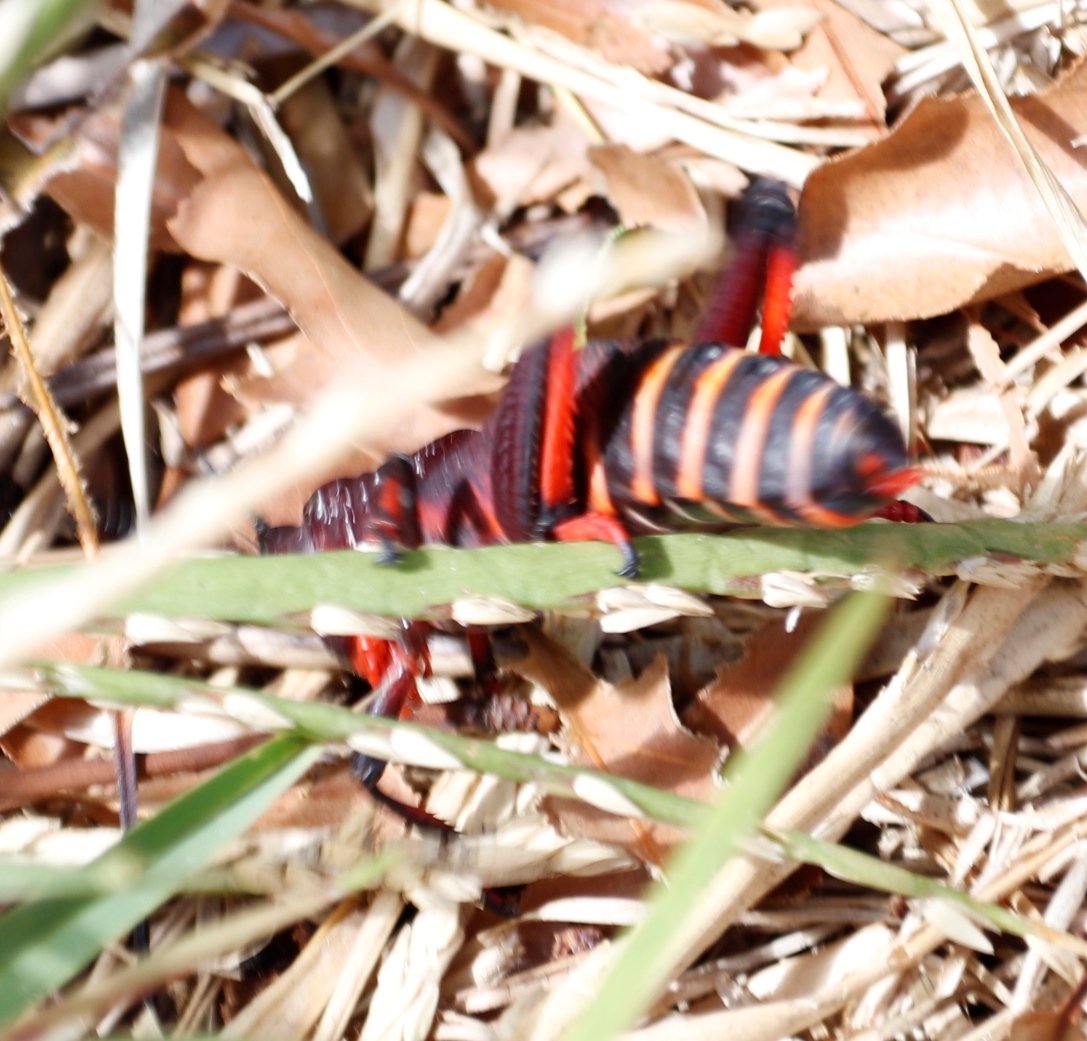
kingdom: Animalia
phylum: Arthropoda
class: Insecta
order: Orthoptera
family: Pyrgomorphidae
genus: Dictyophorus
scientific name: Dictyophorus spumans
